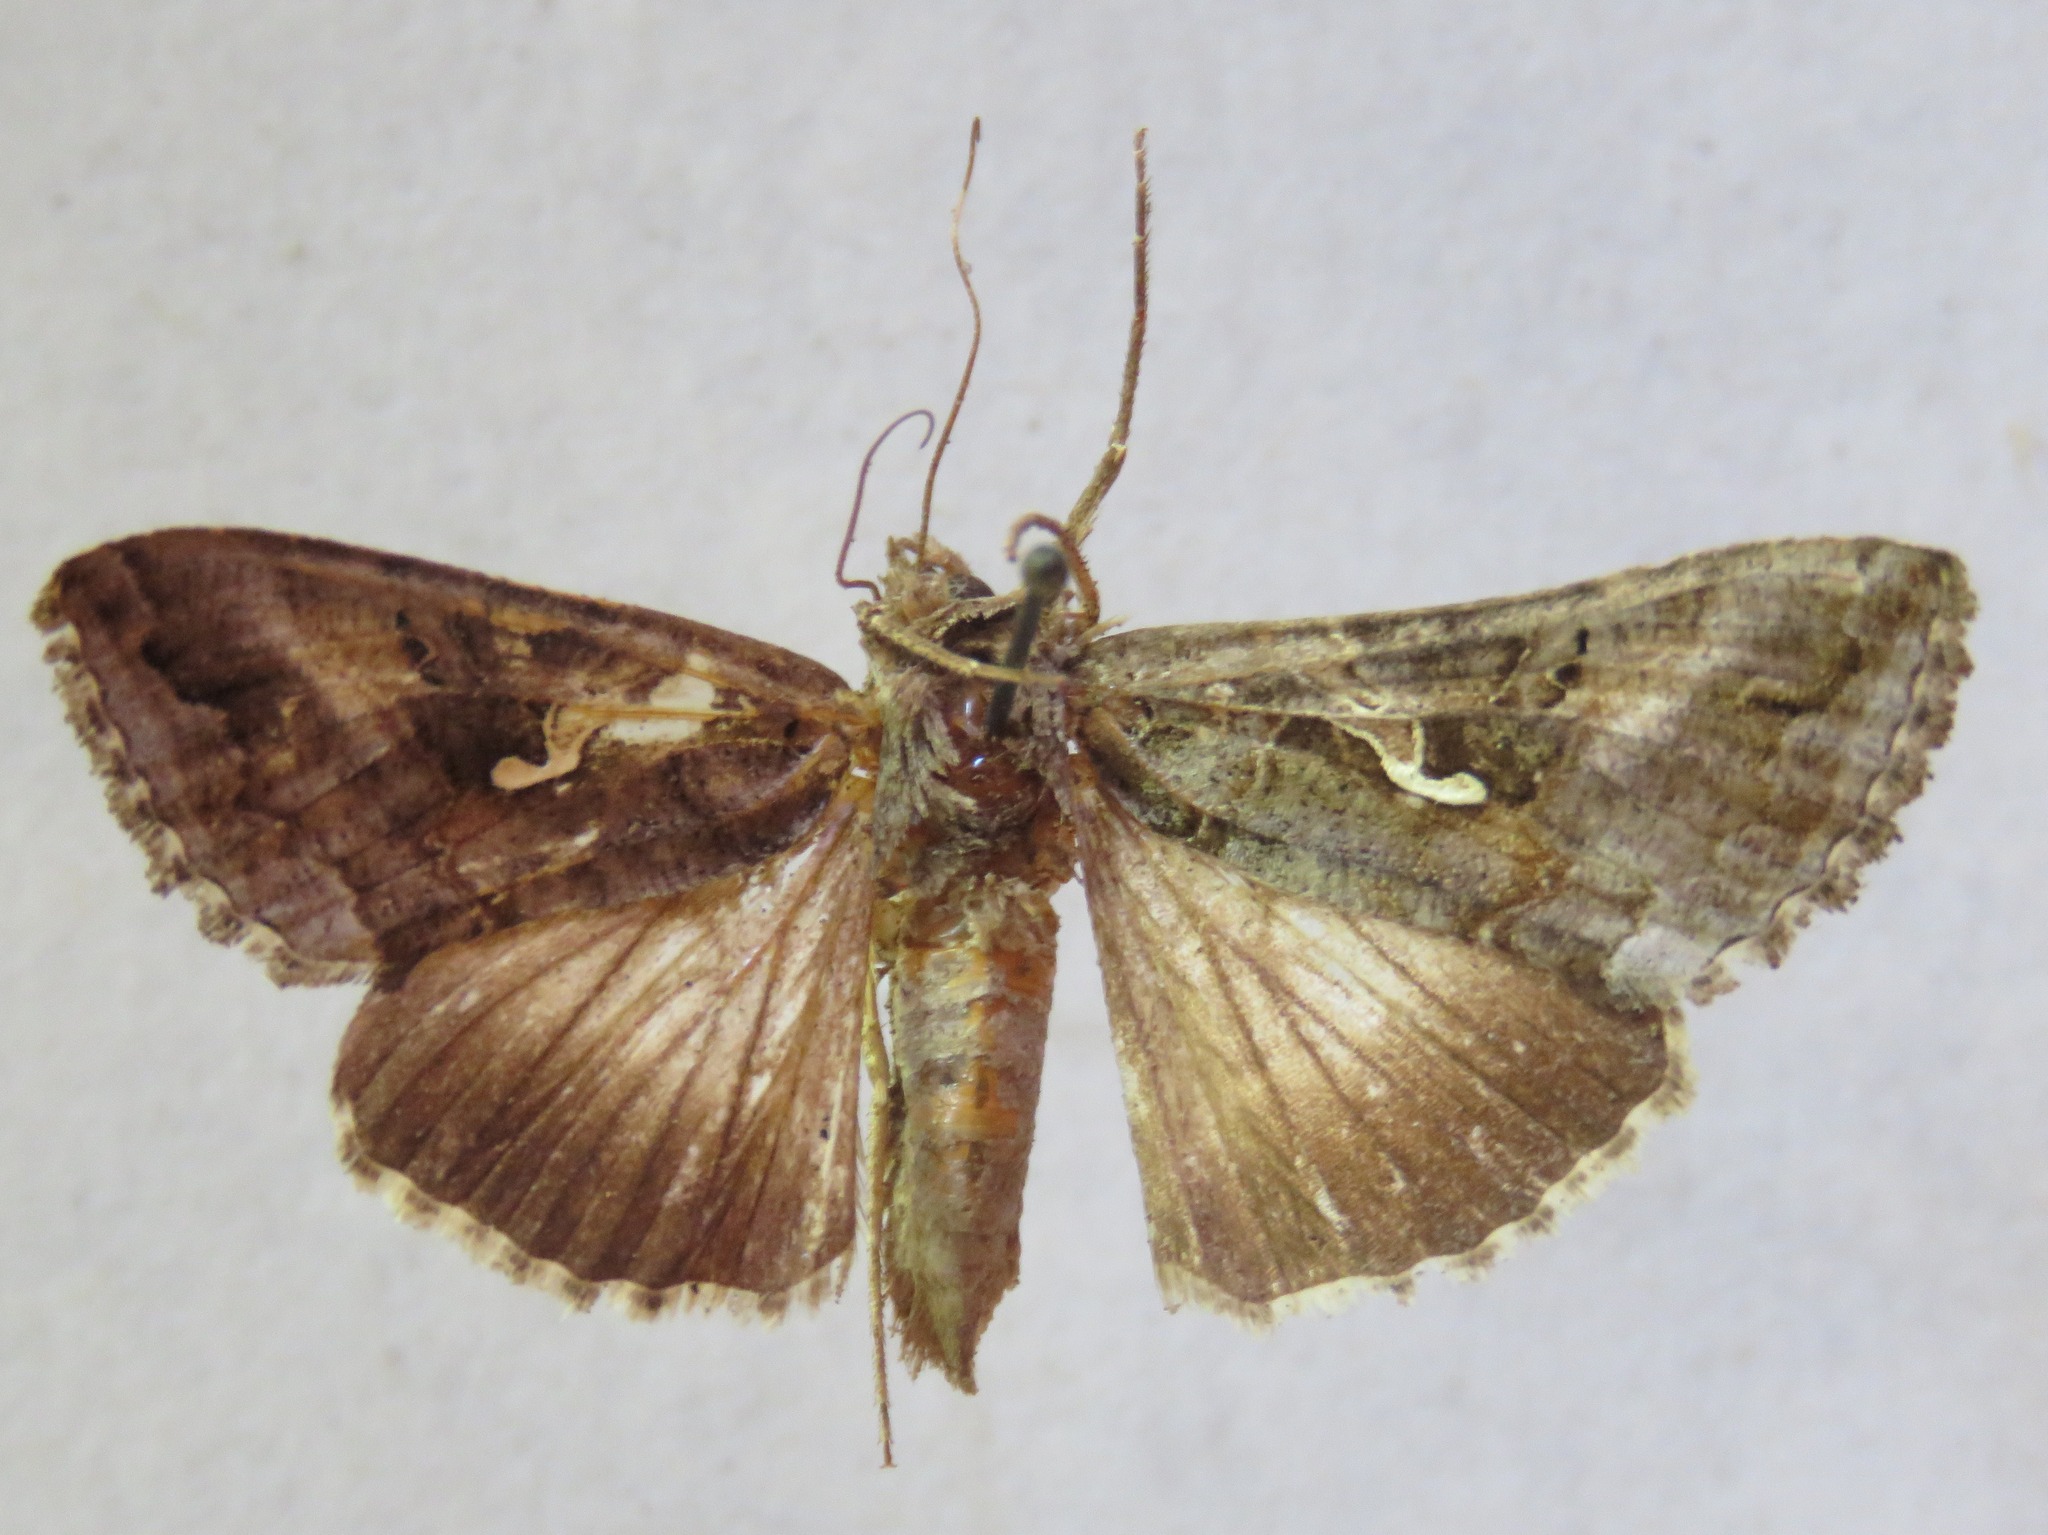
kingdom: Animalia
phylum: Arthropoda
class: Insecta
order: Lepidoptera
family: Noctuidae
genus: Autographa
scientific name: Autographa gamma
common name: Silver y
